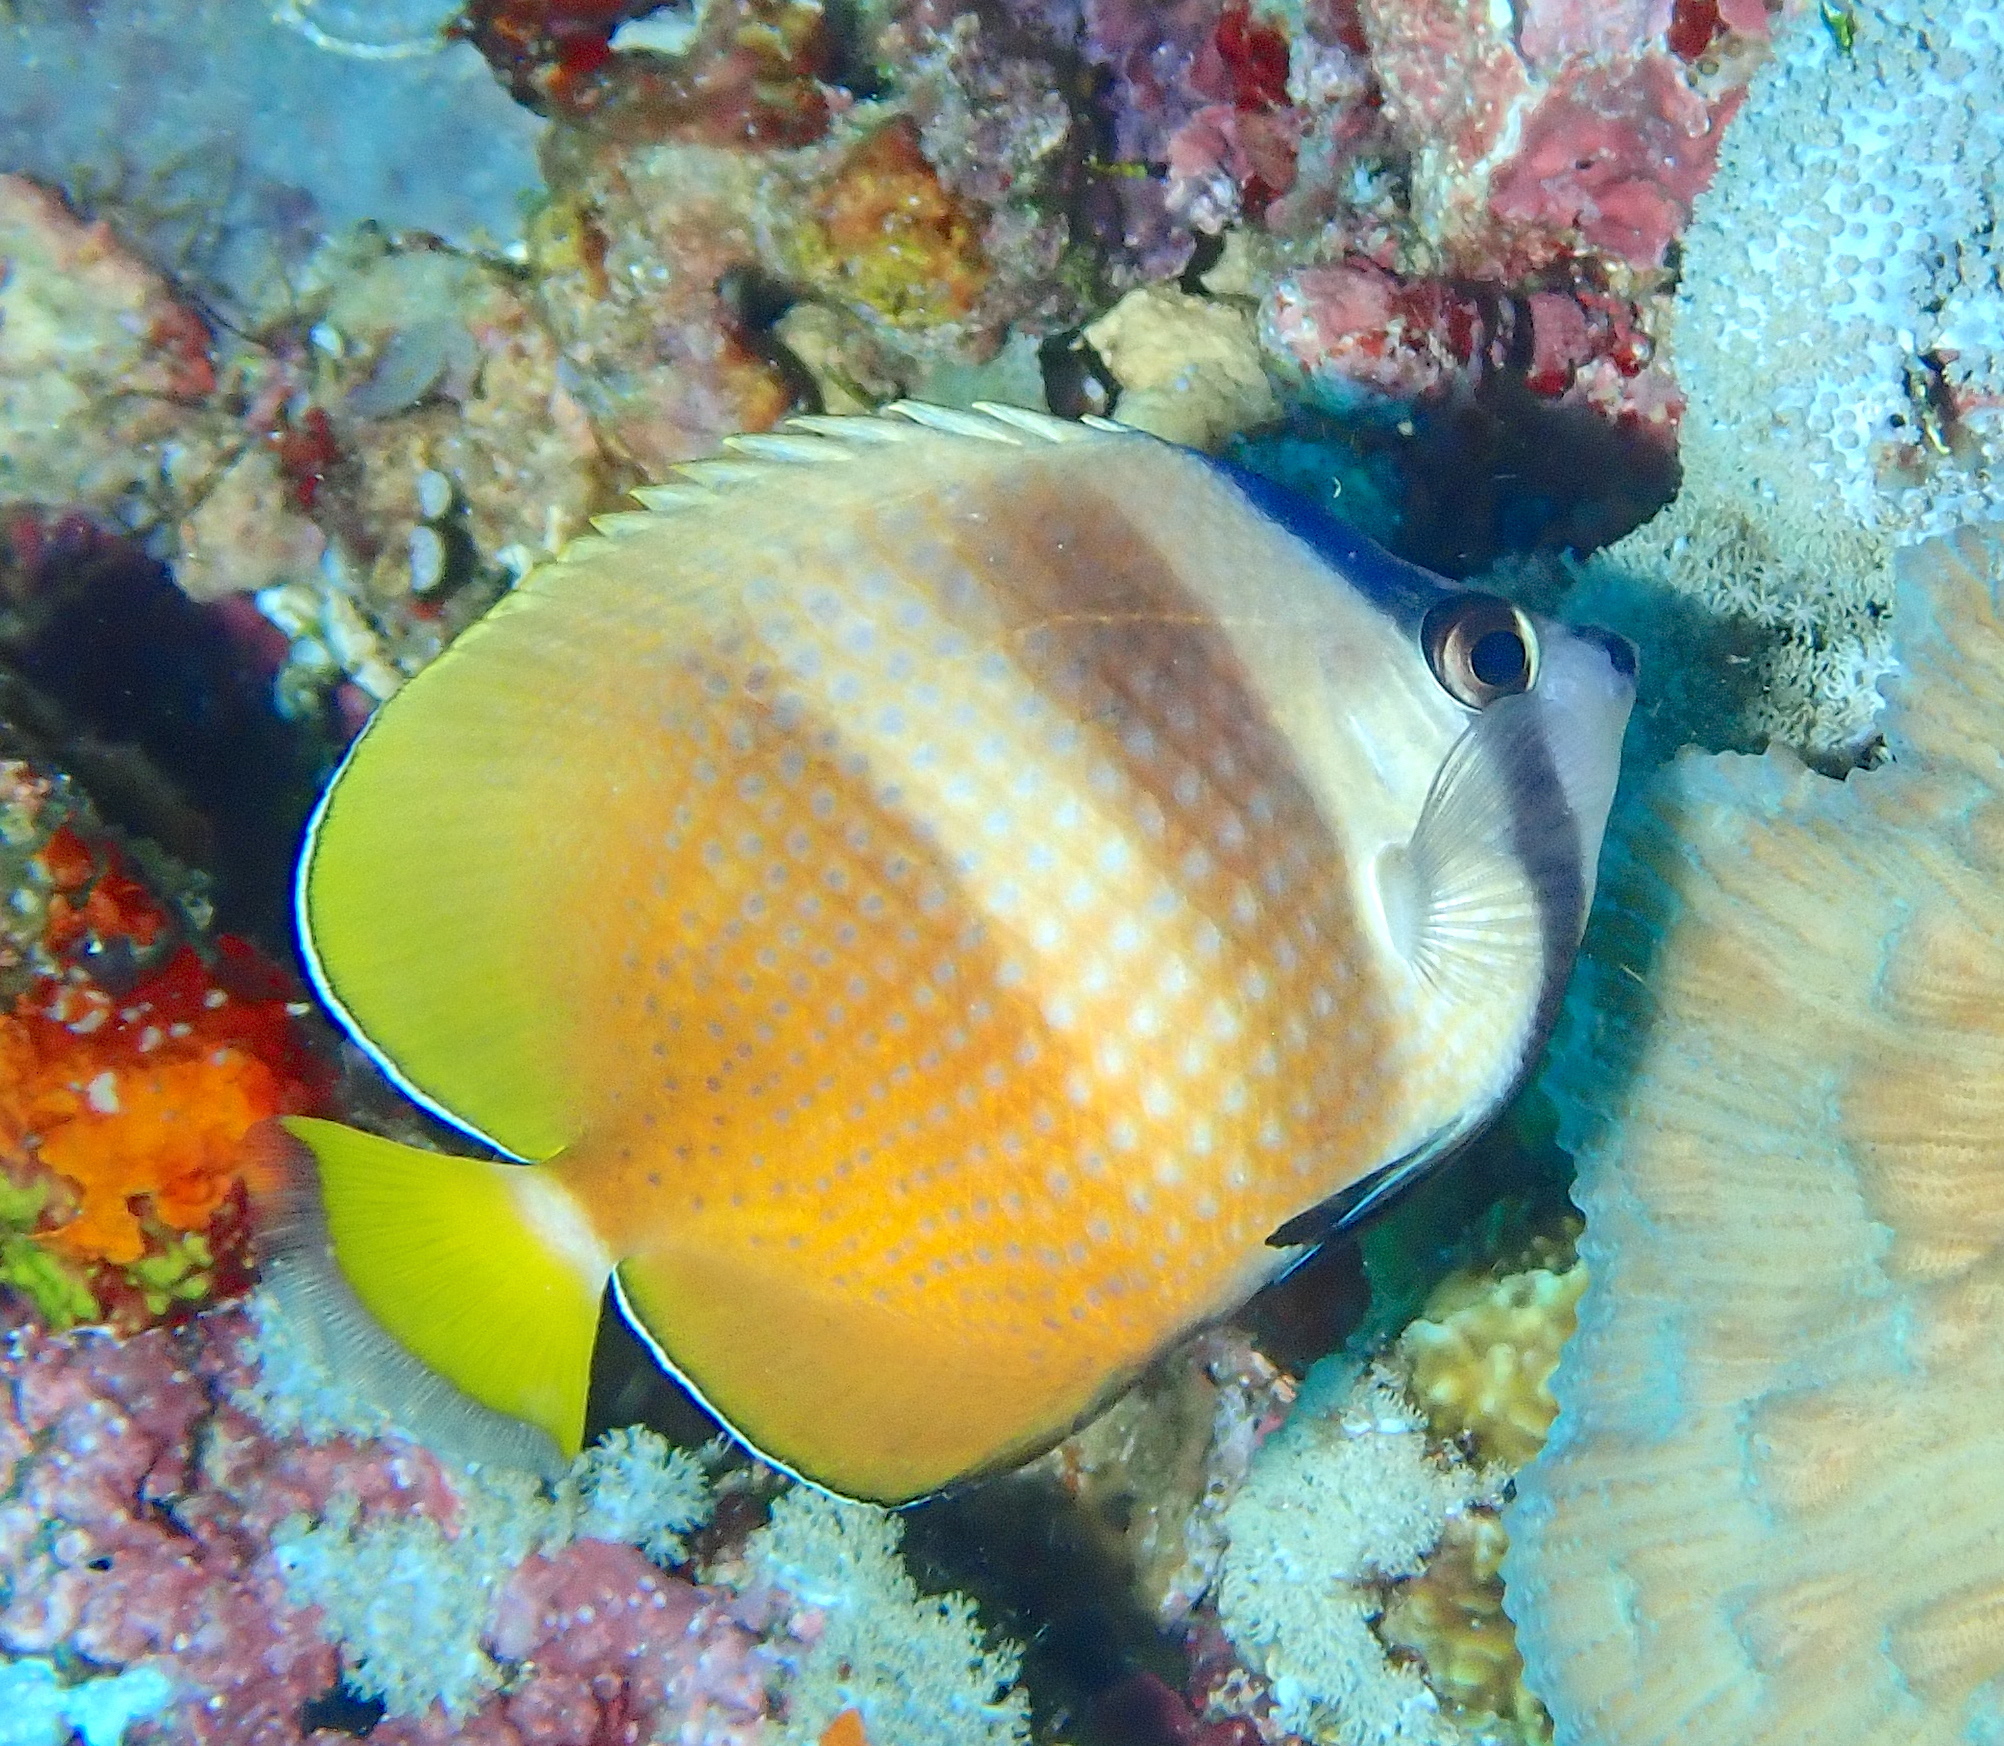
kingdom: Animalia
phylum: Chordata
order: Perciformes
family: Chaetodontidae
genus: Chaetodon
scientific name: Chaetodon kleinii
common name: Klein's butterflyfish
